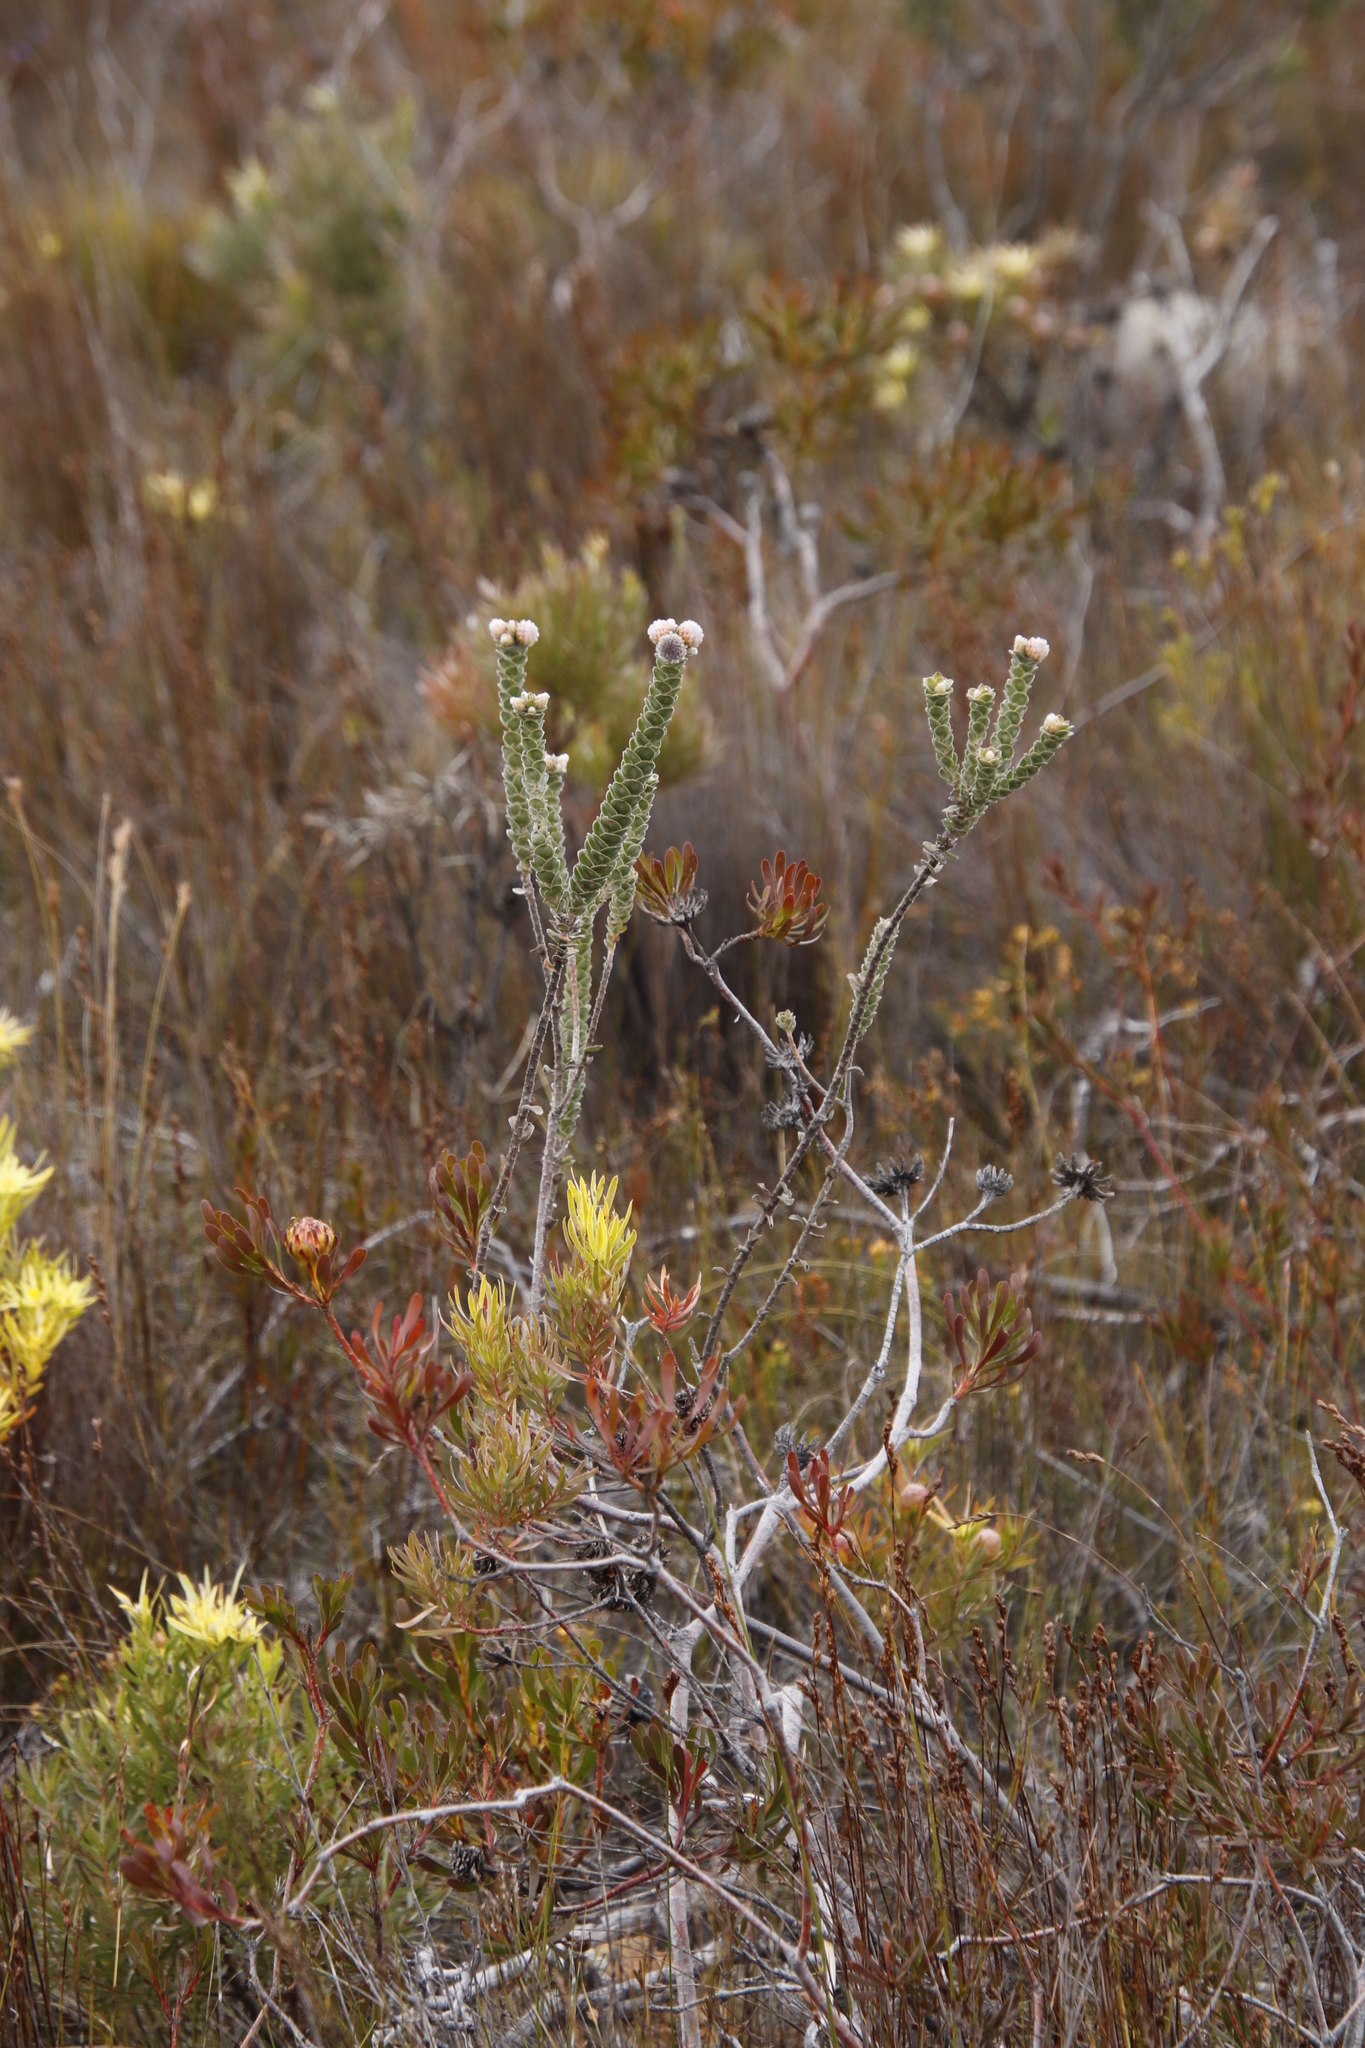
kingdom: Plantae
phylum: Tracheophyta
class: Magnoliopsida
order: Proteales
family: Proteaceae
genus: Leucospermum
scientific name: Leucospermum truncatulum
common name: Oval-leaf pincushion
